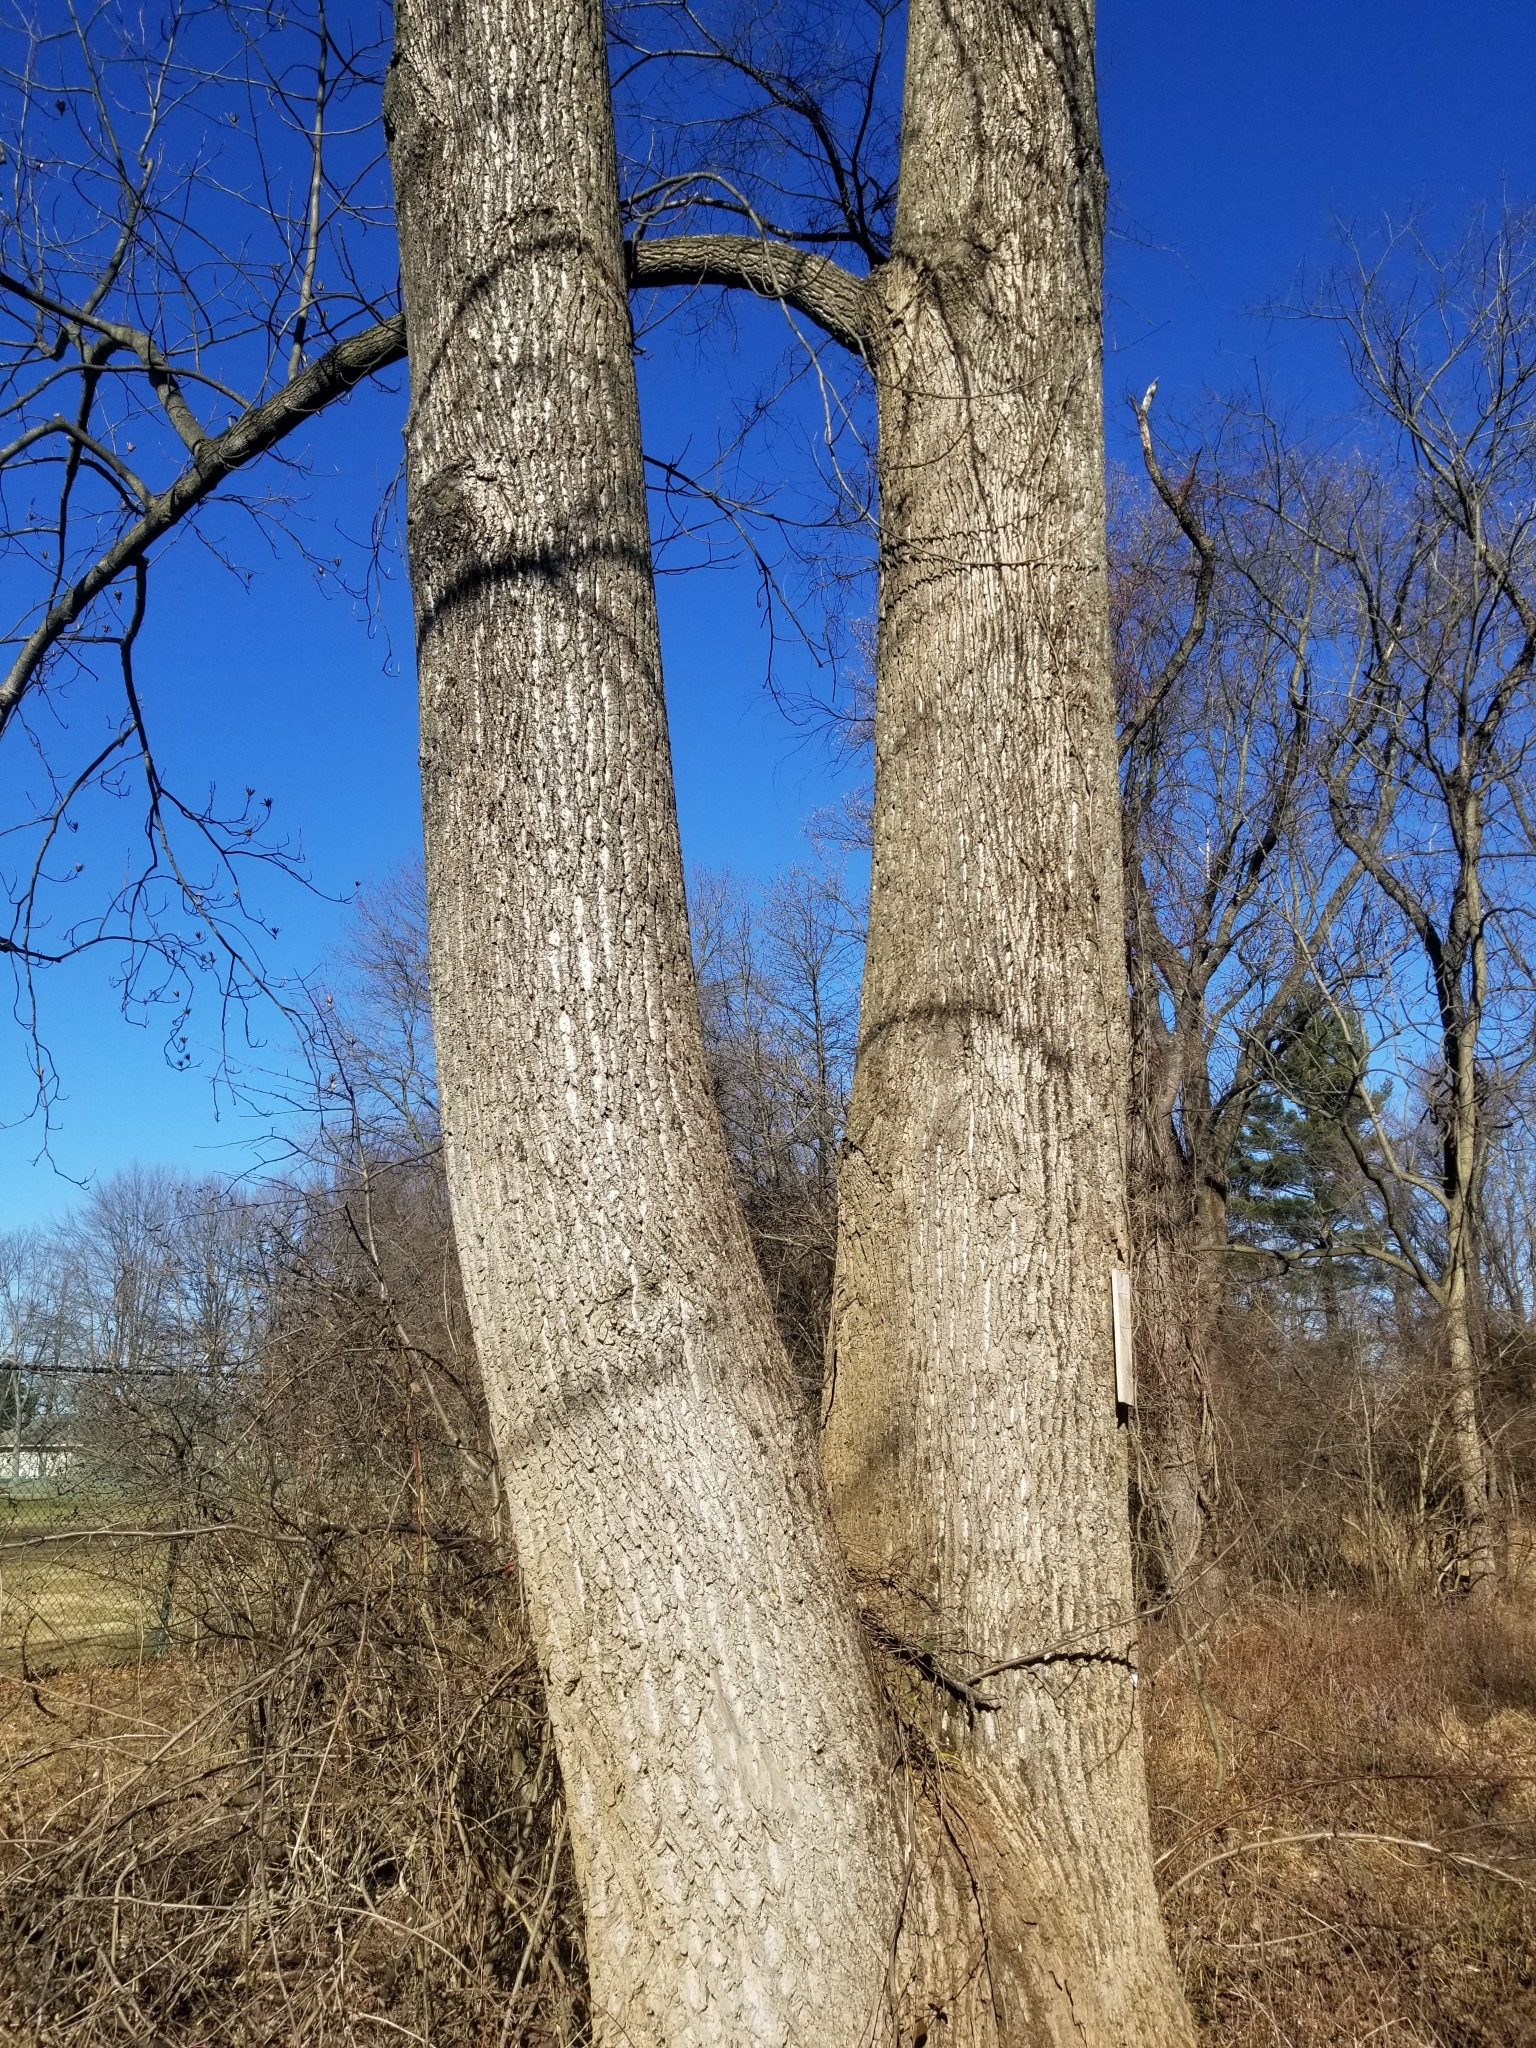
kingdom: Plantae
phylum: Tracheophyta
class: Magnoliopsida
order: Magnoliales
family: Magnoliaceae
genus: Liriodendron
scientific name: Liriodendron tulipifera
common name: Tulip tree
